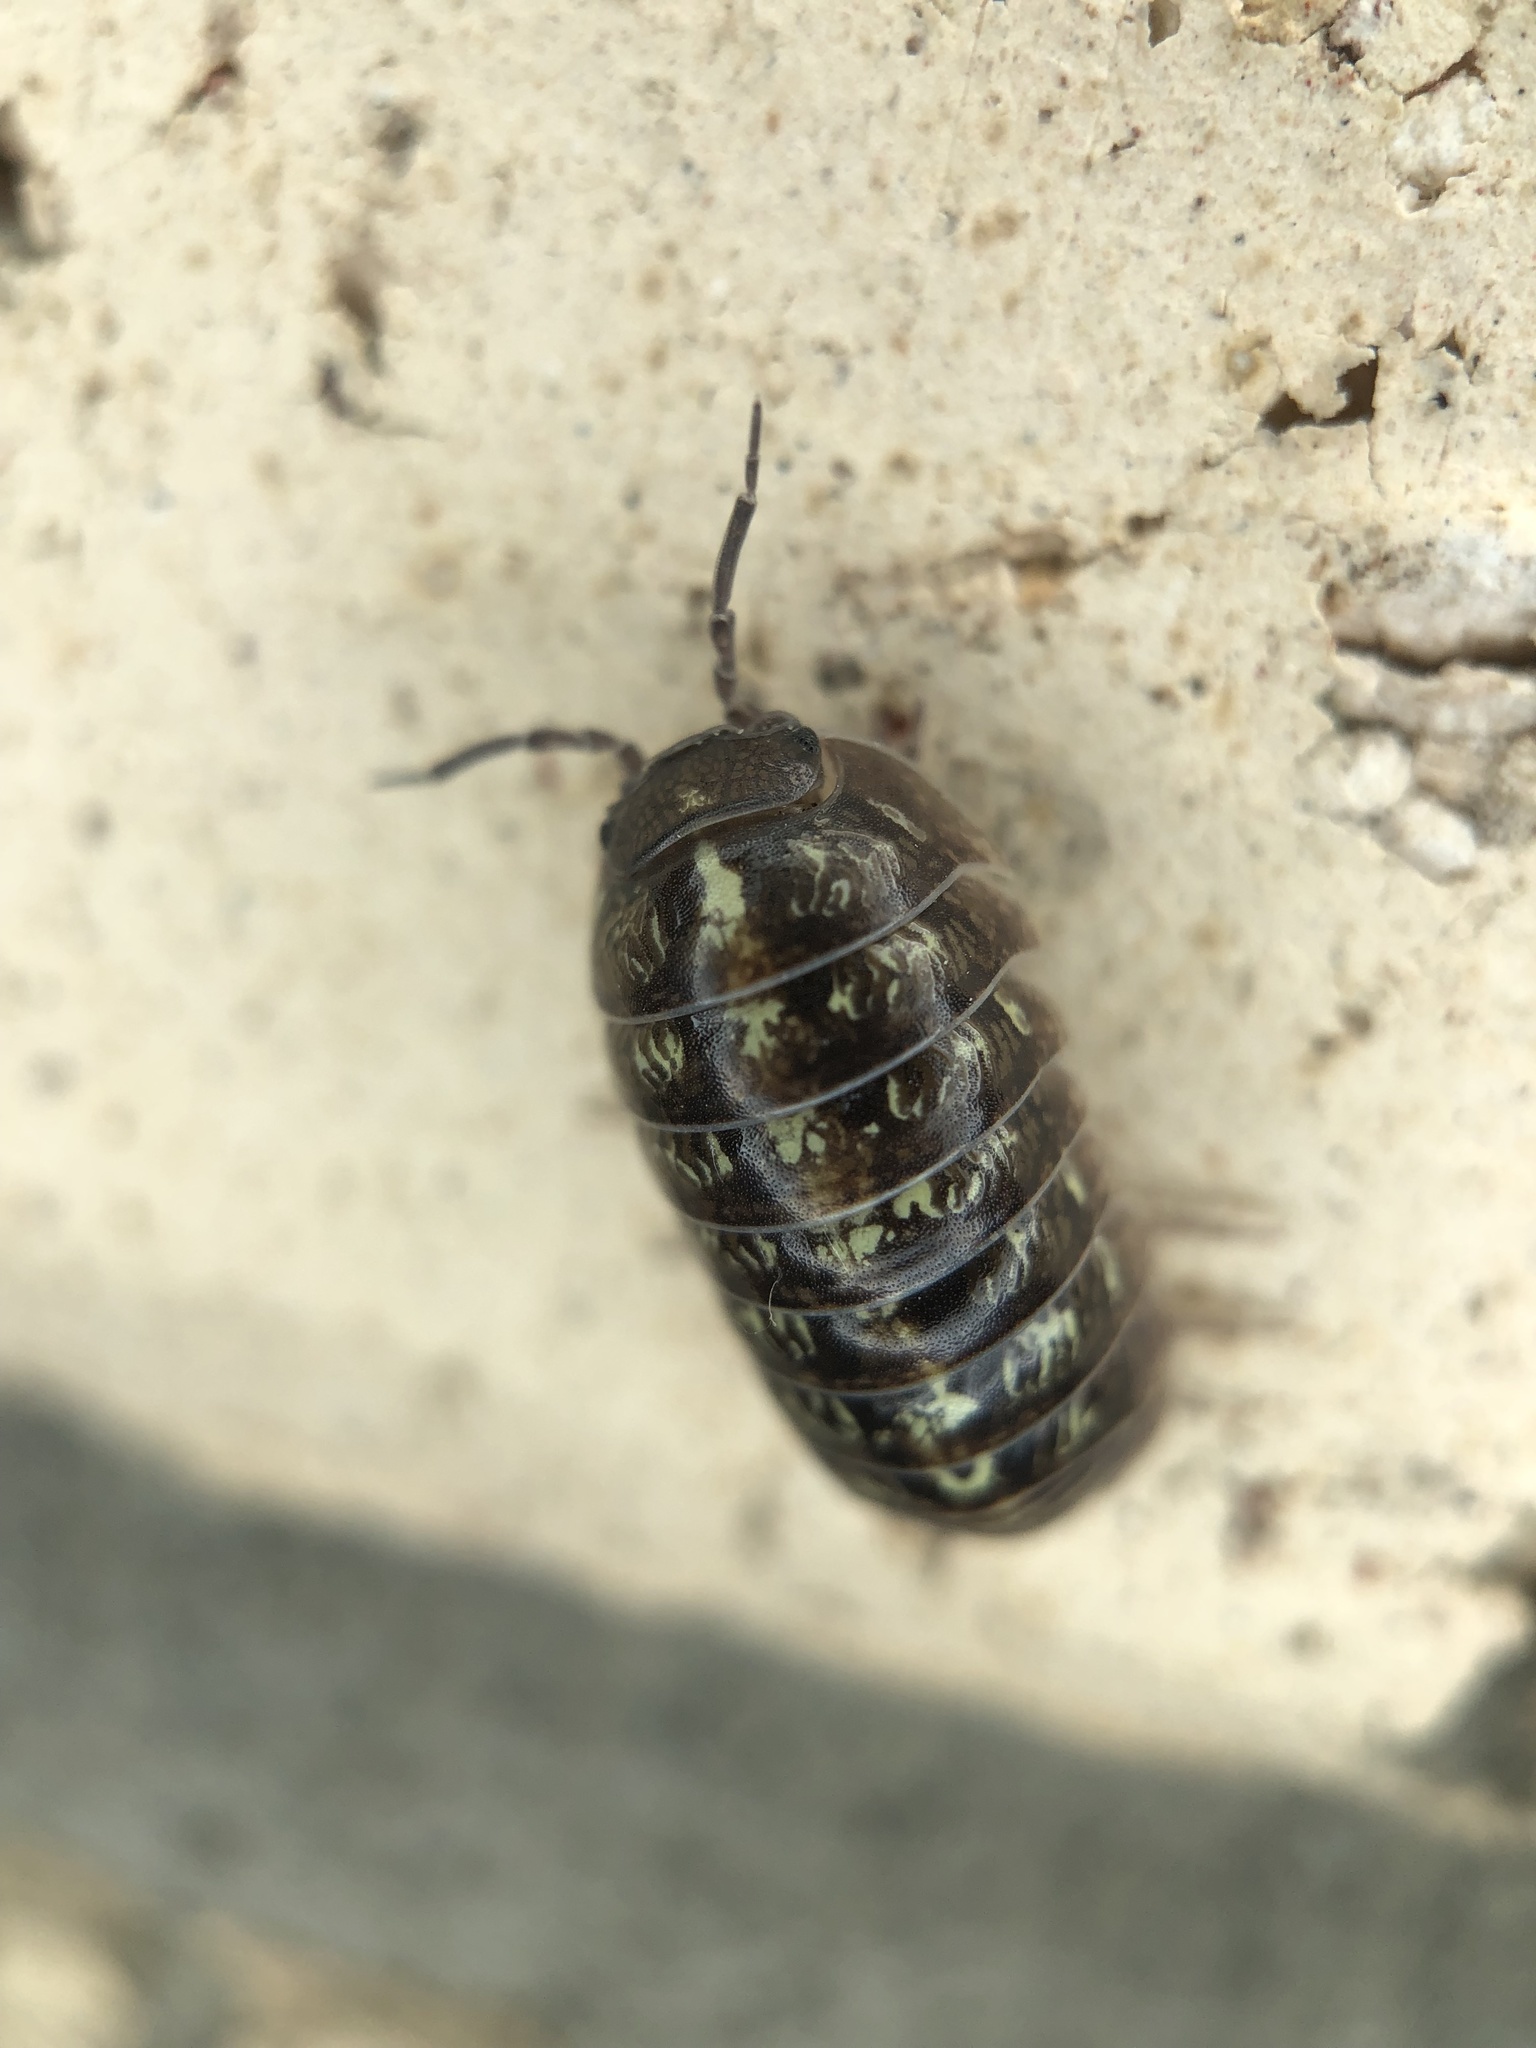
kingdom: Animalia
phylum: Arthropoda
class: Malacostraca
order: Isopoda
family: Armadillidiidae
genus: Armadillidium
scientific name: Armadillidium vulgare
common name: Common pill woodlouse
